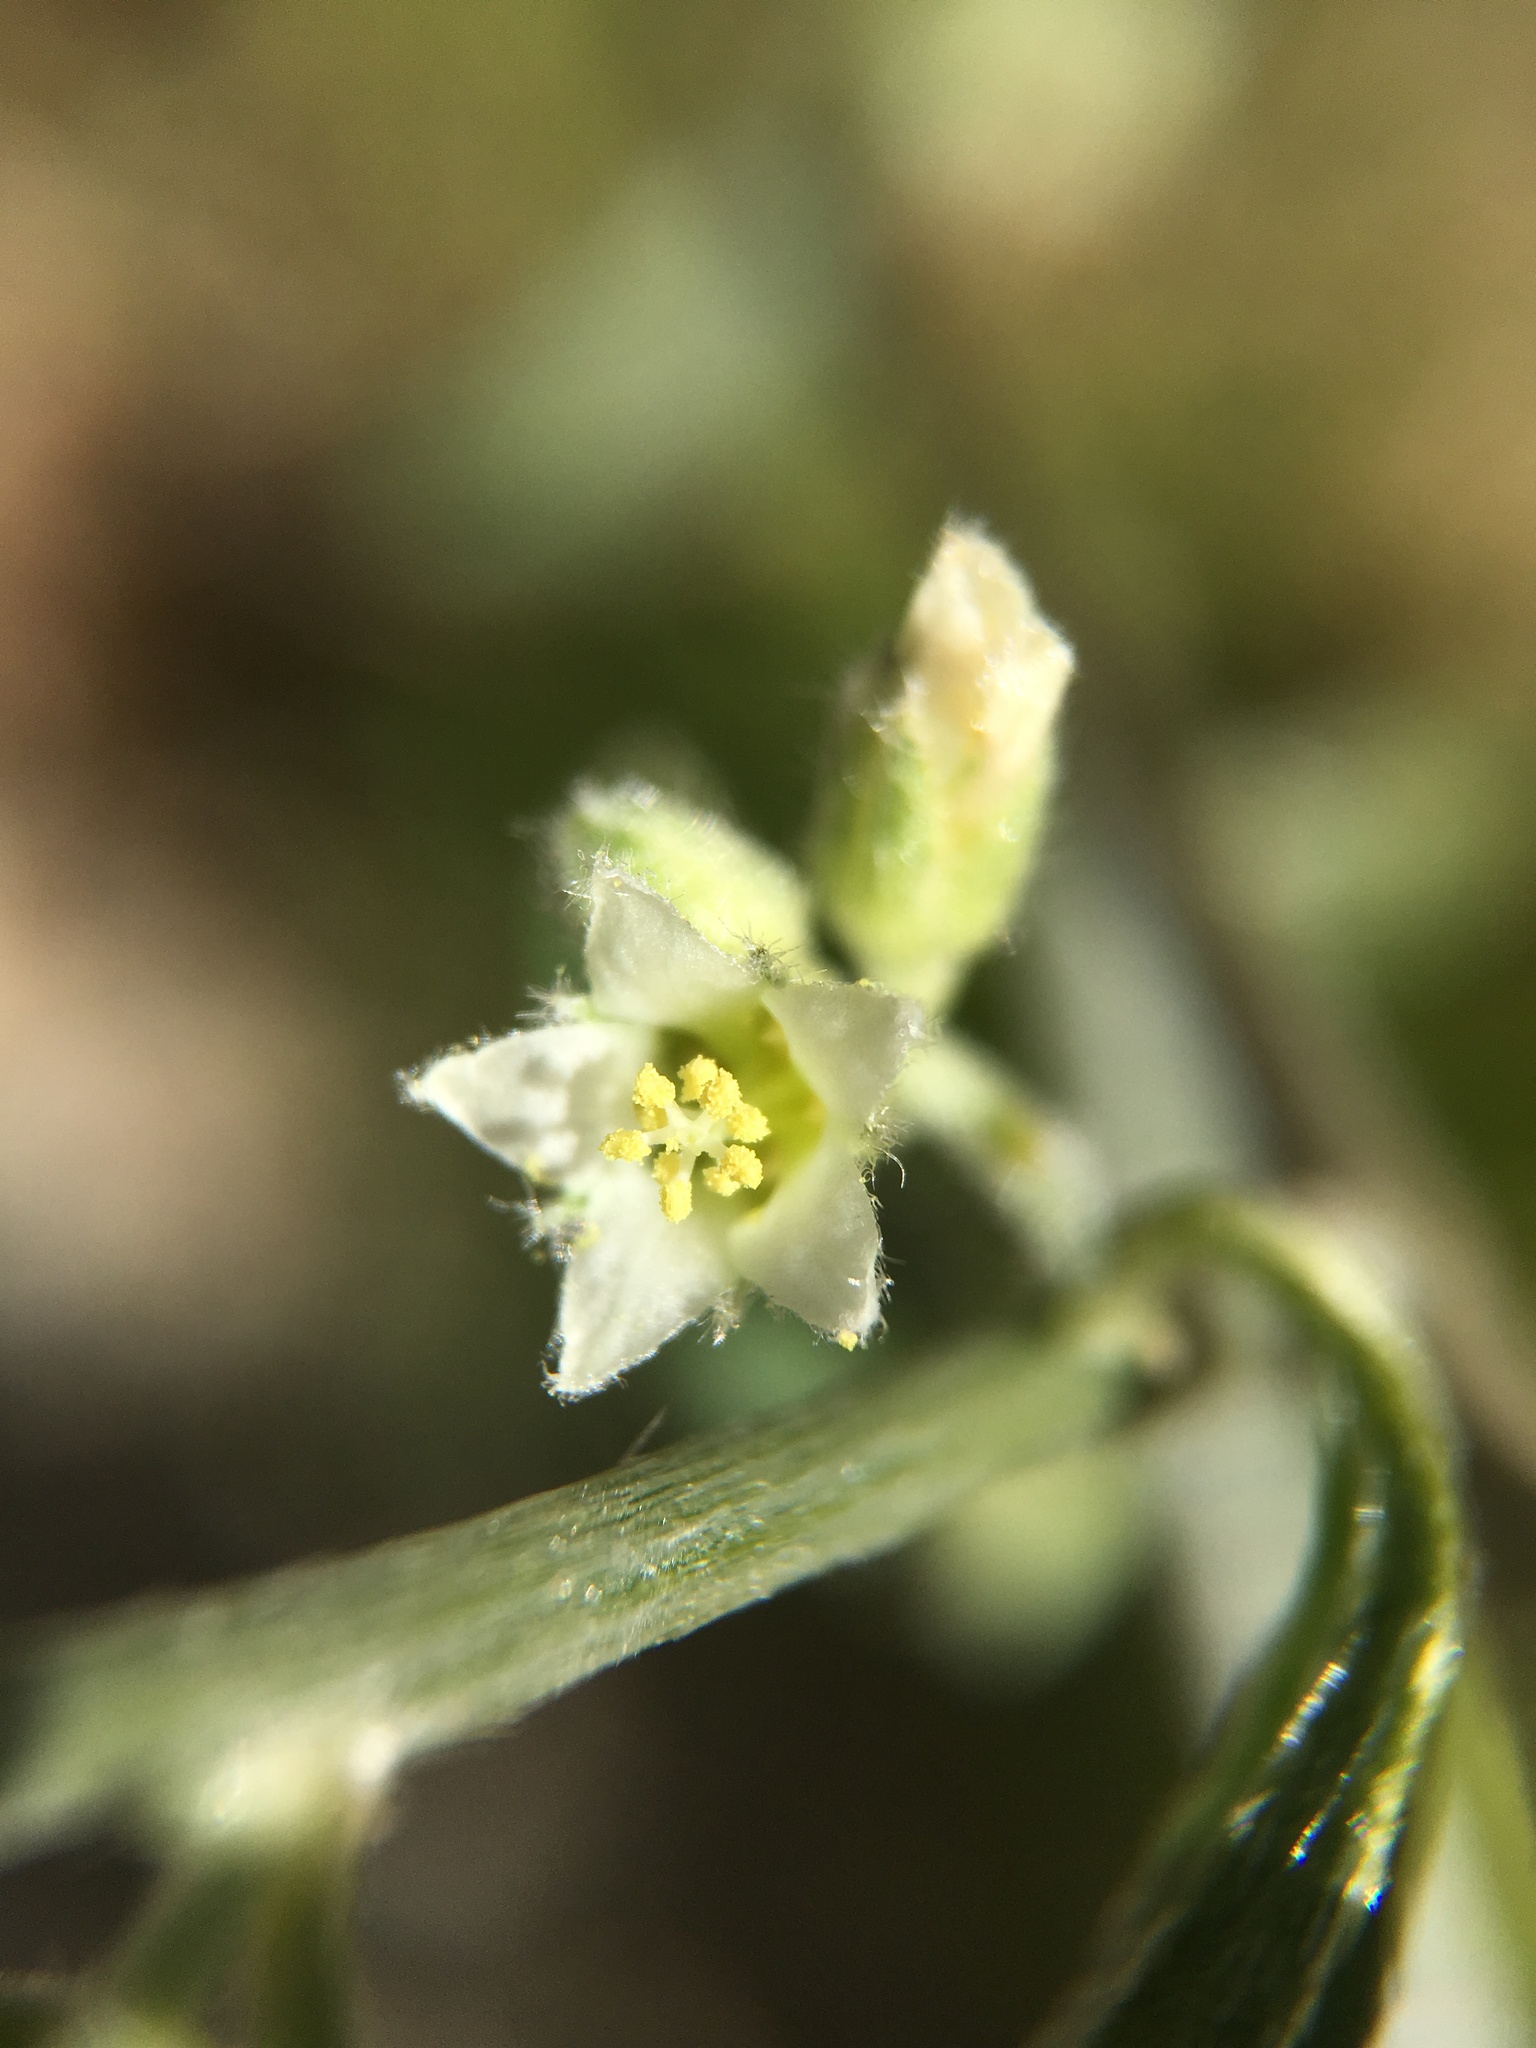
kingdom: Plantae
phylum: Tracheophyta
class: Magnoliopsida
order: Malpighiales
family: Euphorbiaceae
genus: Ditaxis
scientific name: Ditaxis lanceolata
